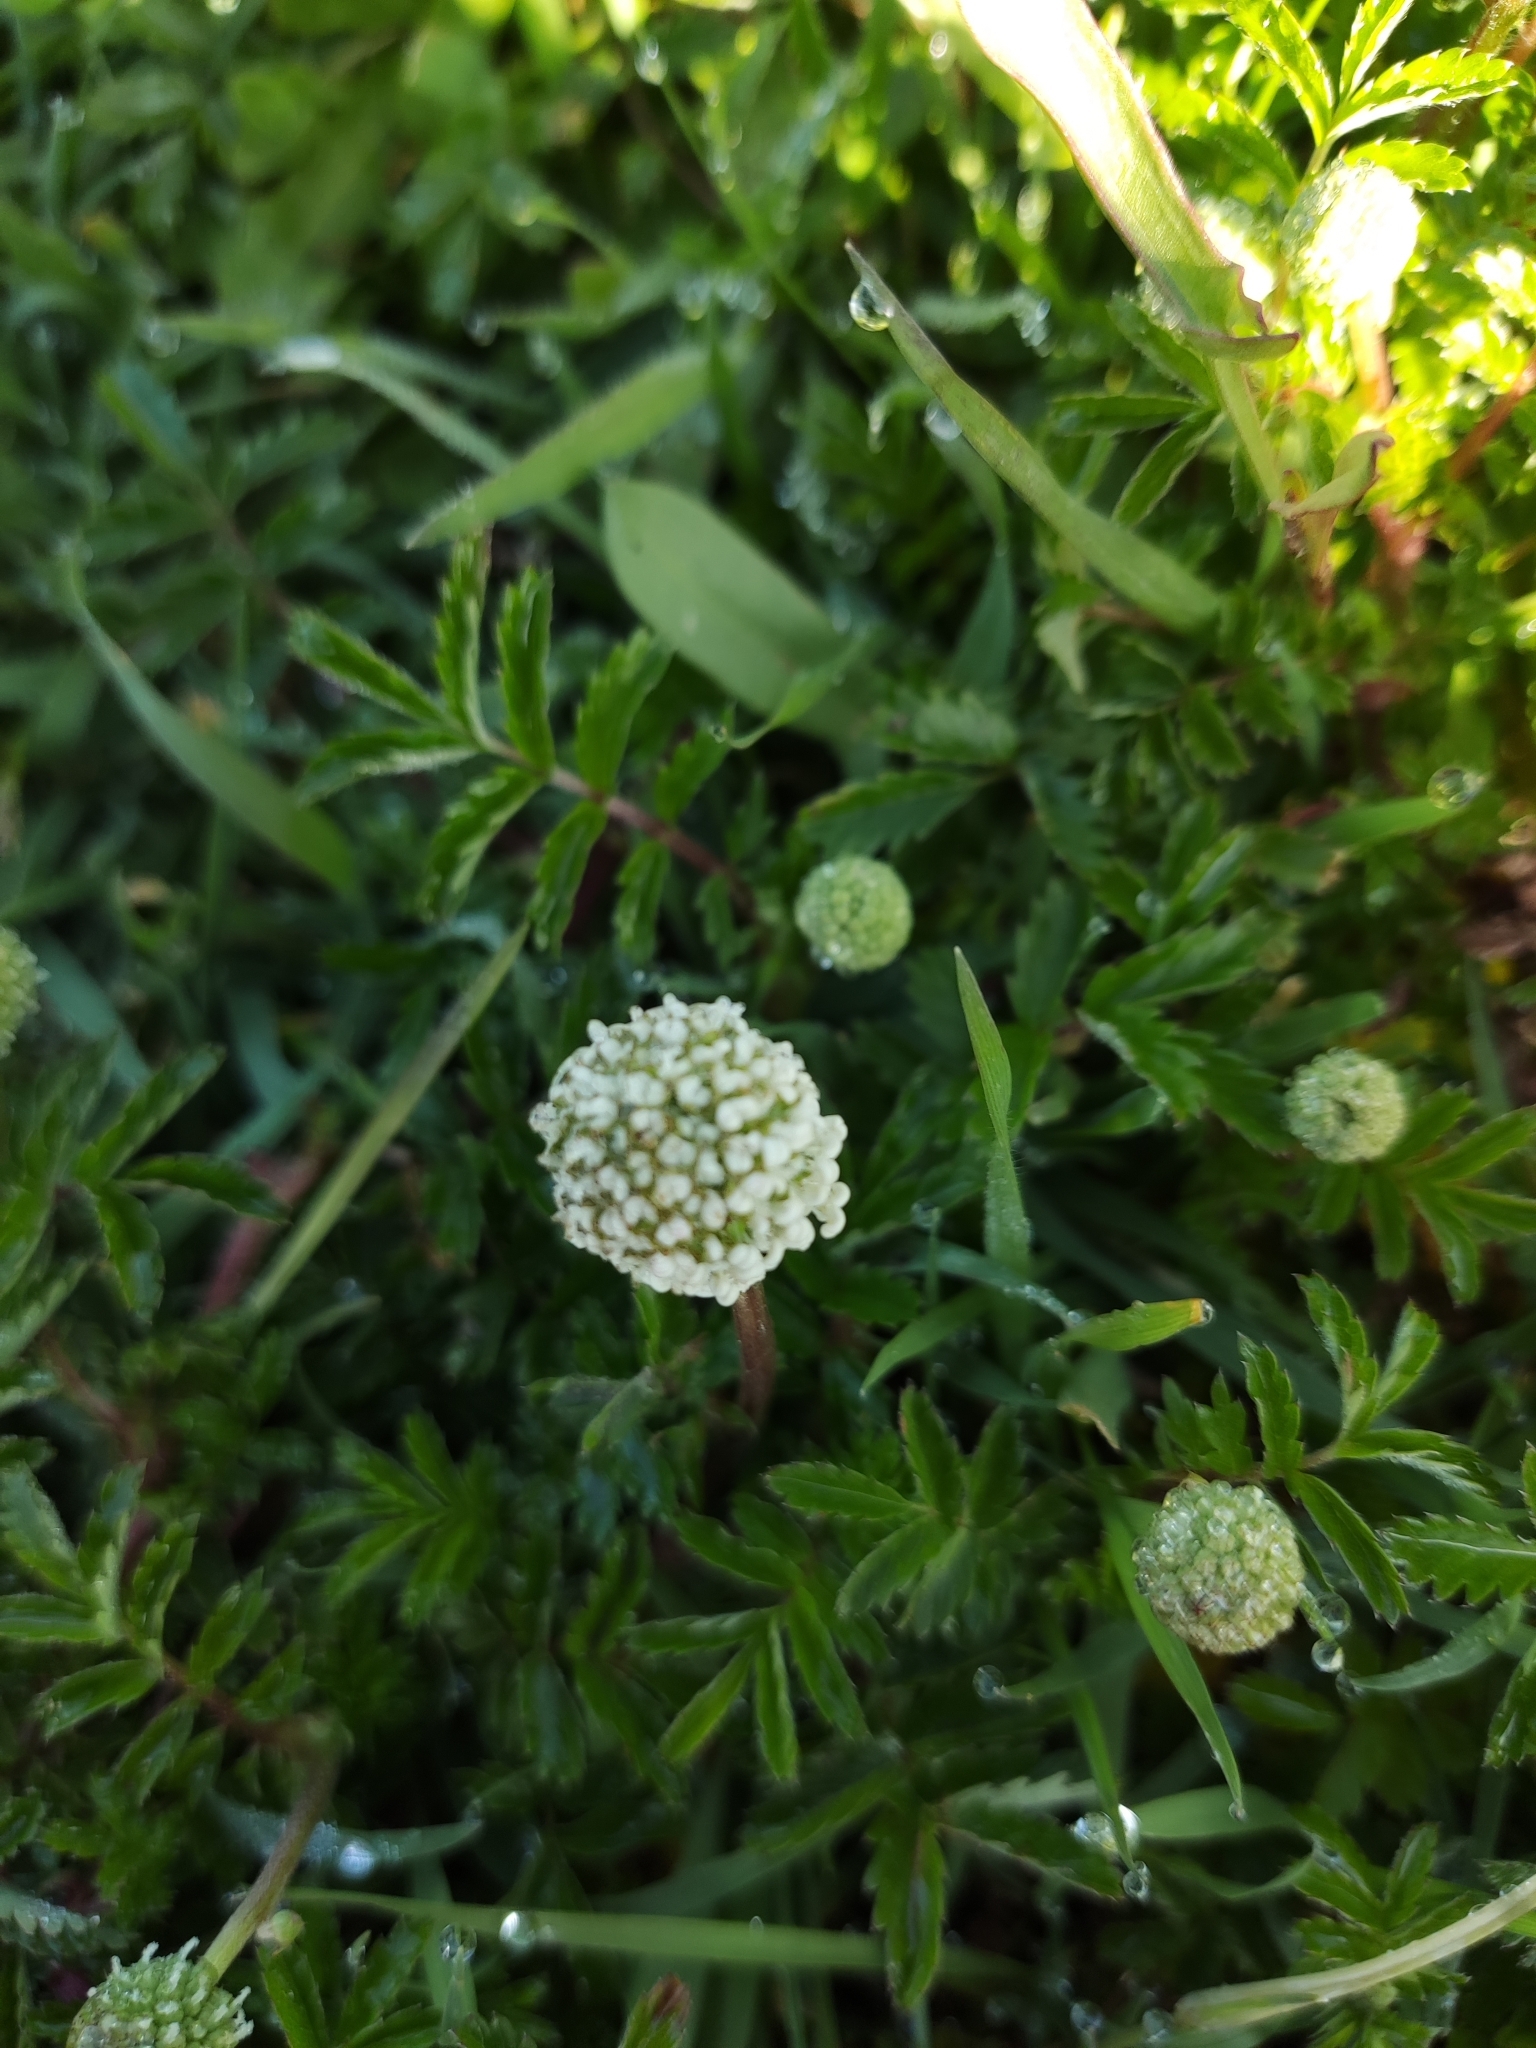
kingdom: Plantae
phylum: Tracheophyta
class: Magnoliopsida
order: Rosales
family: Rosaceae
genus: Acaena
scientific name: Acaena novae-zelandiae
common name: Pirri-pirri-bur
